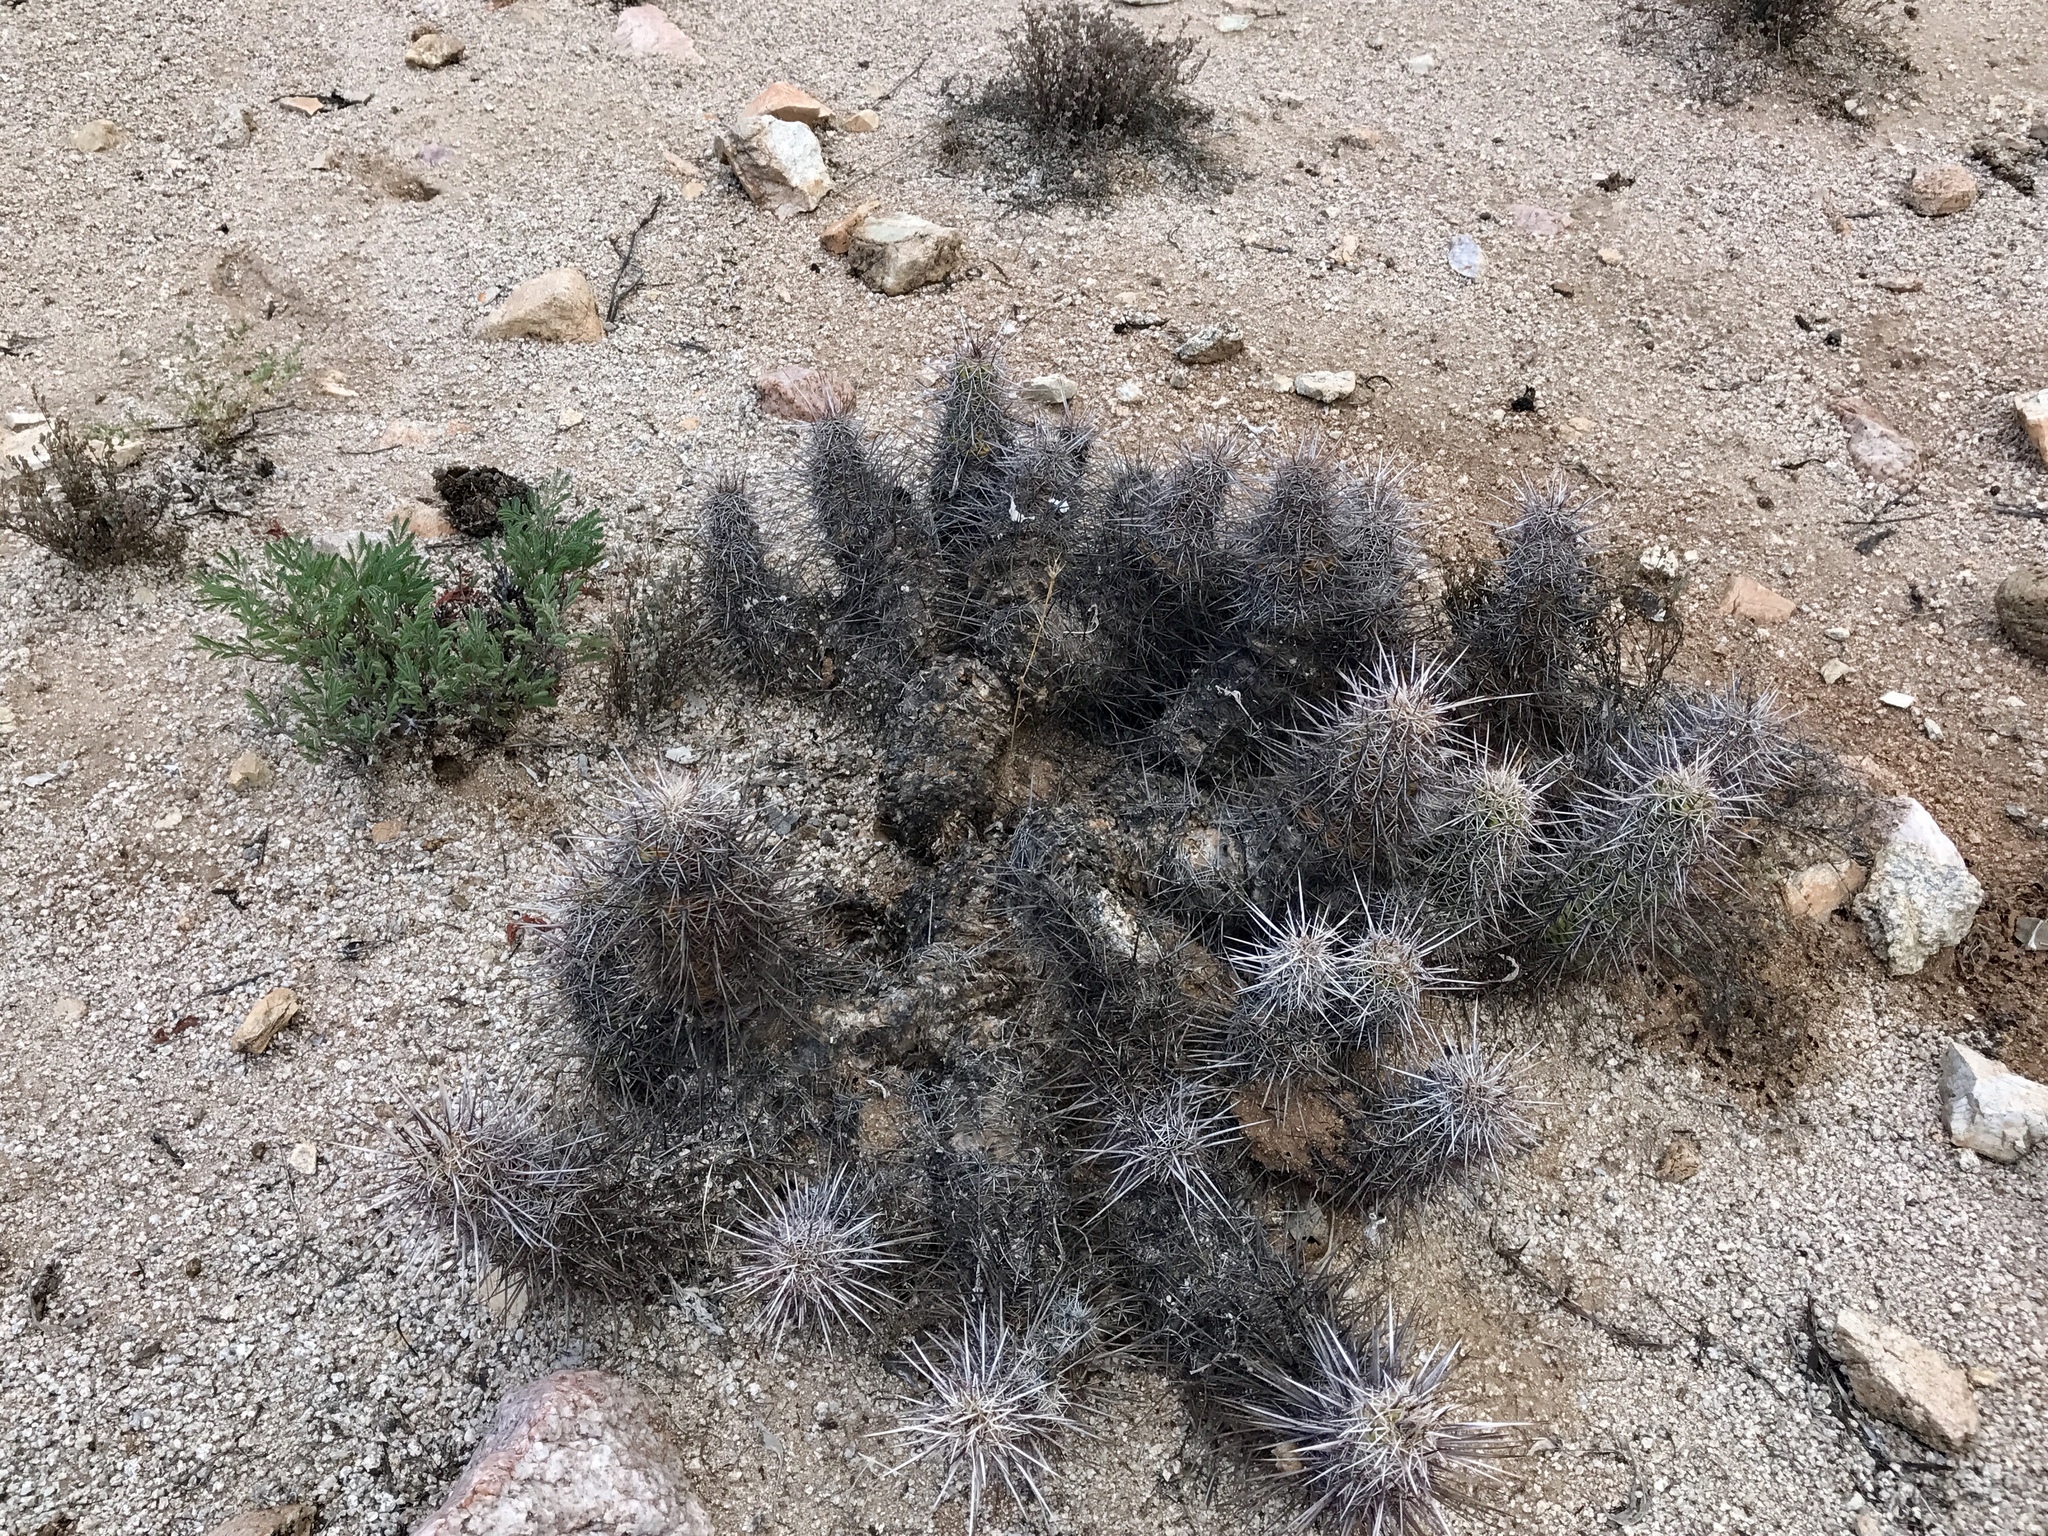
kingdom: Plantae
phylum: Tracheophyta
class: Magnoliopsida
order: Caryophyllales
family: Cactaceae
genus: Echinocereus
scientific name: Echinocereus fasciculatus
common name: Bundle hedgehog
